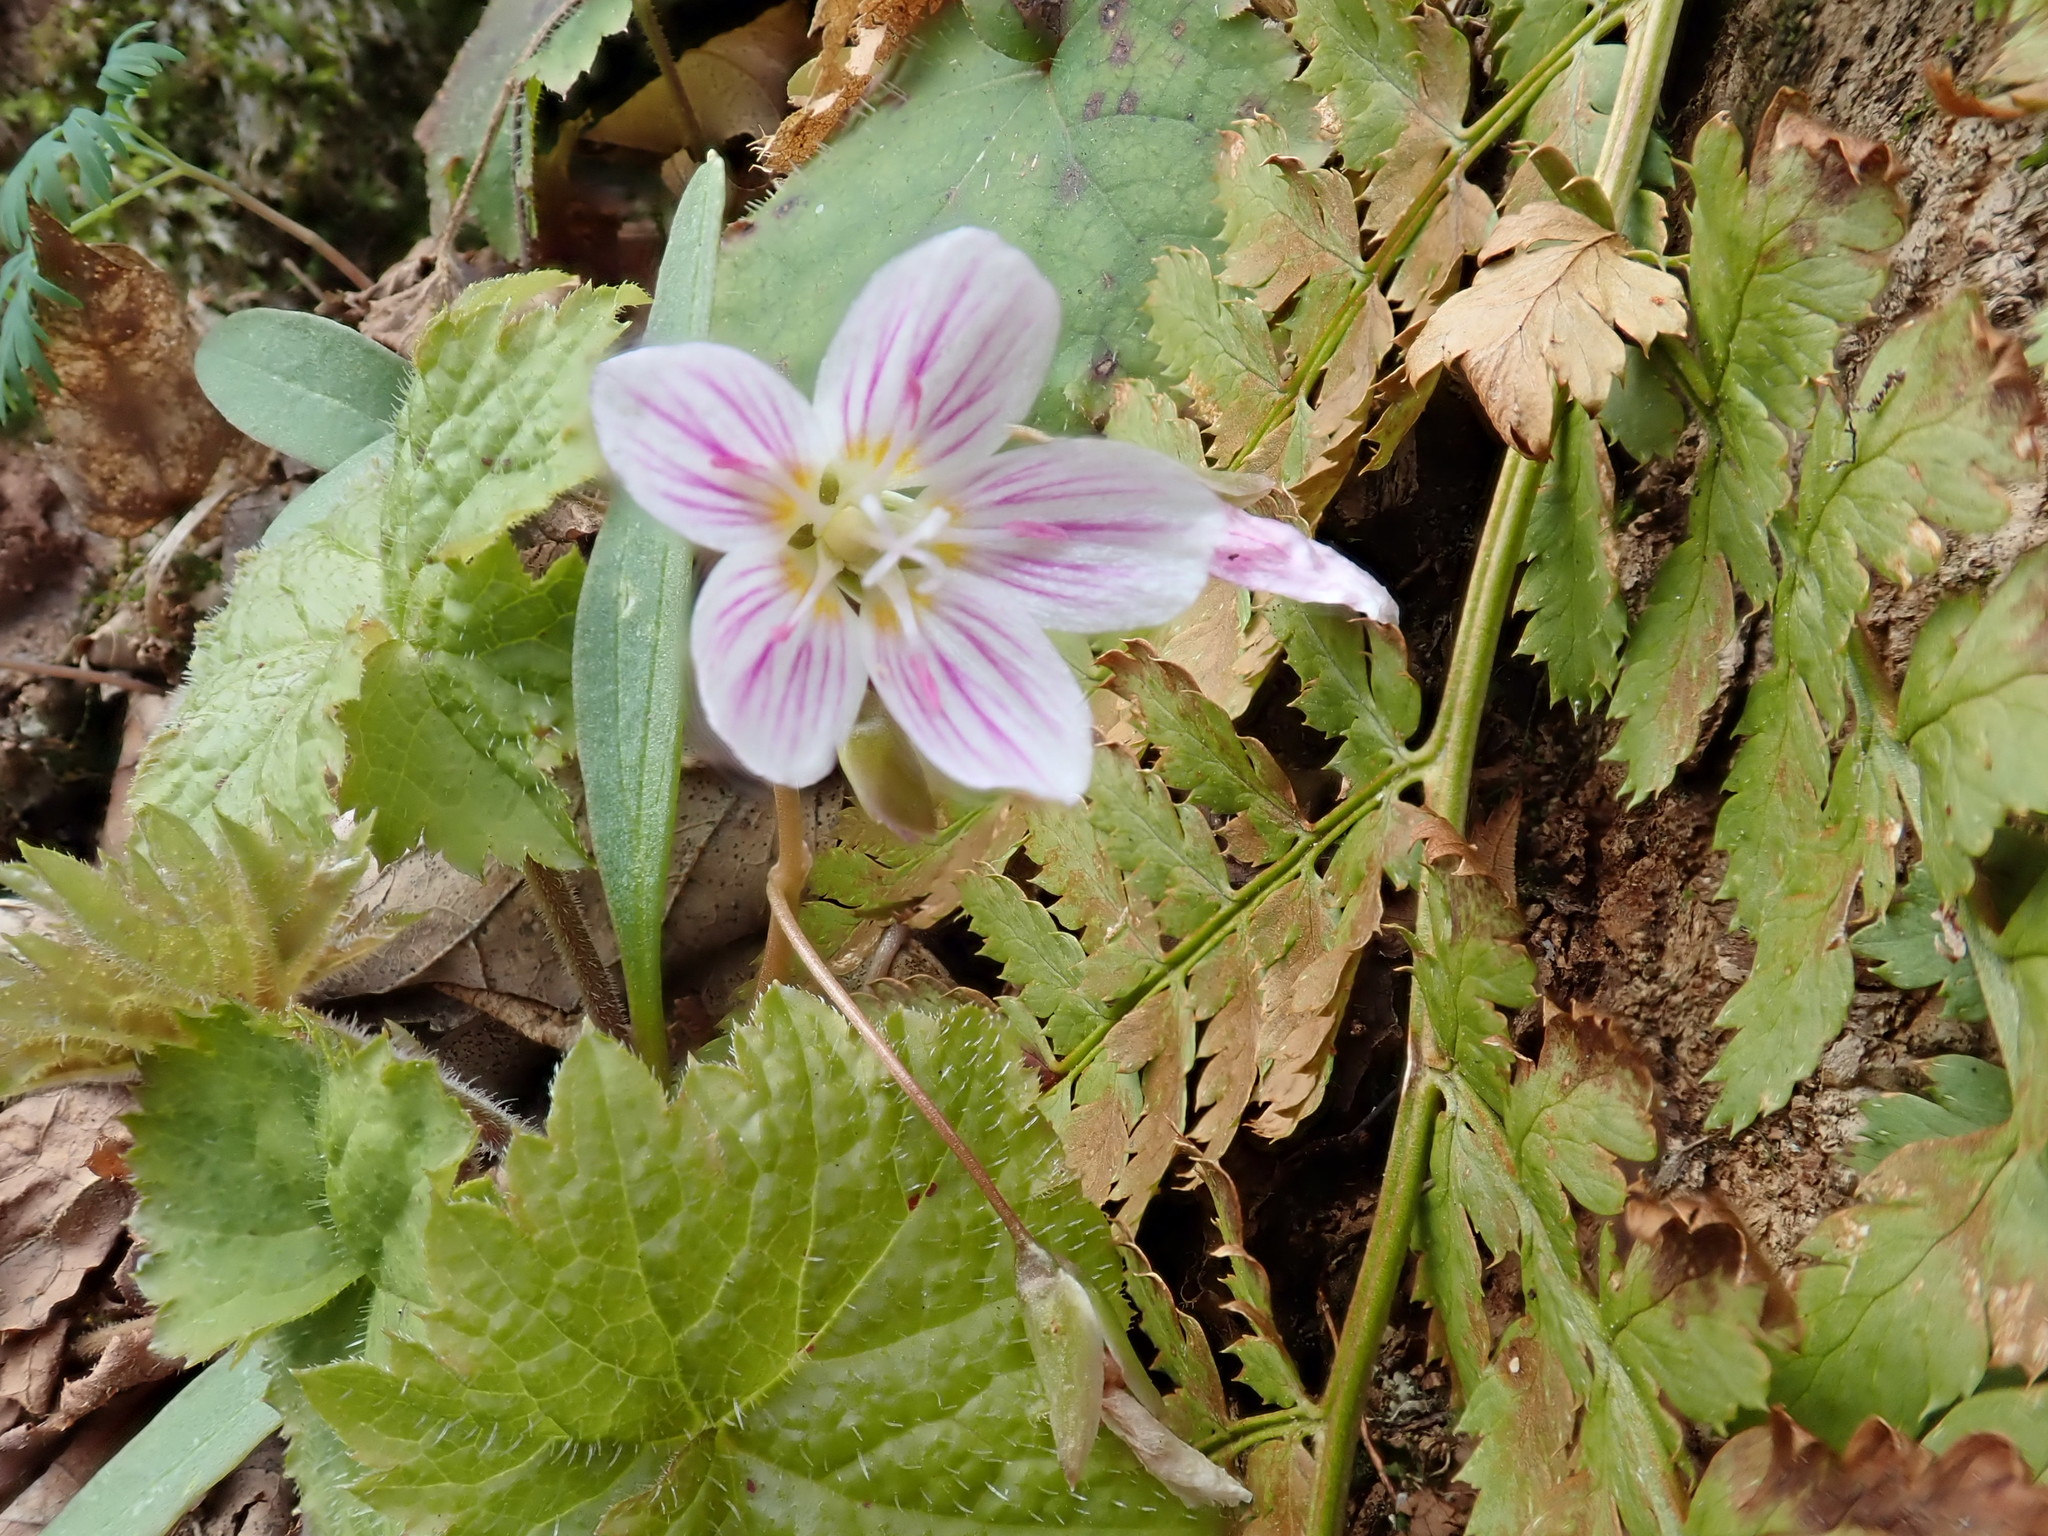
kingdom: Plantae
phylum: Tracheophyta
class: Magnoliopsida
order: Caryophyllales
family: Montiaceae
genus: Claytonia
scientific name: Claytonia caroliniana
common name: Carolina spring beauty
